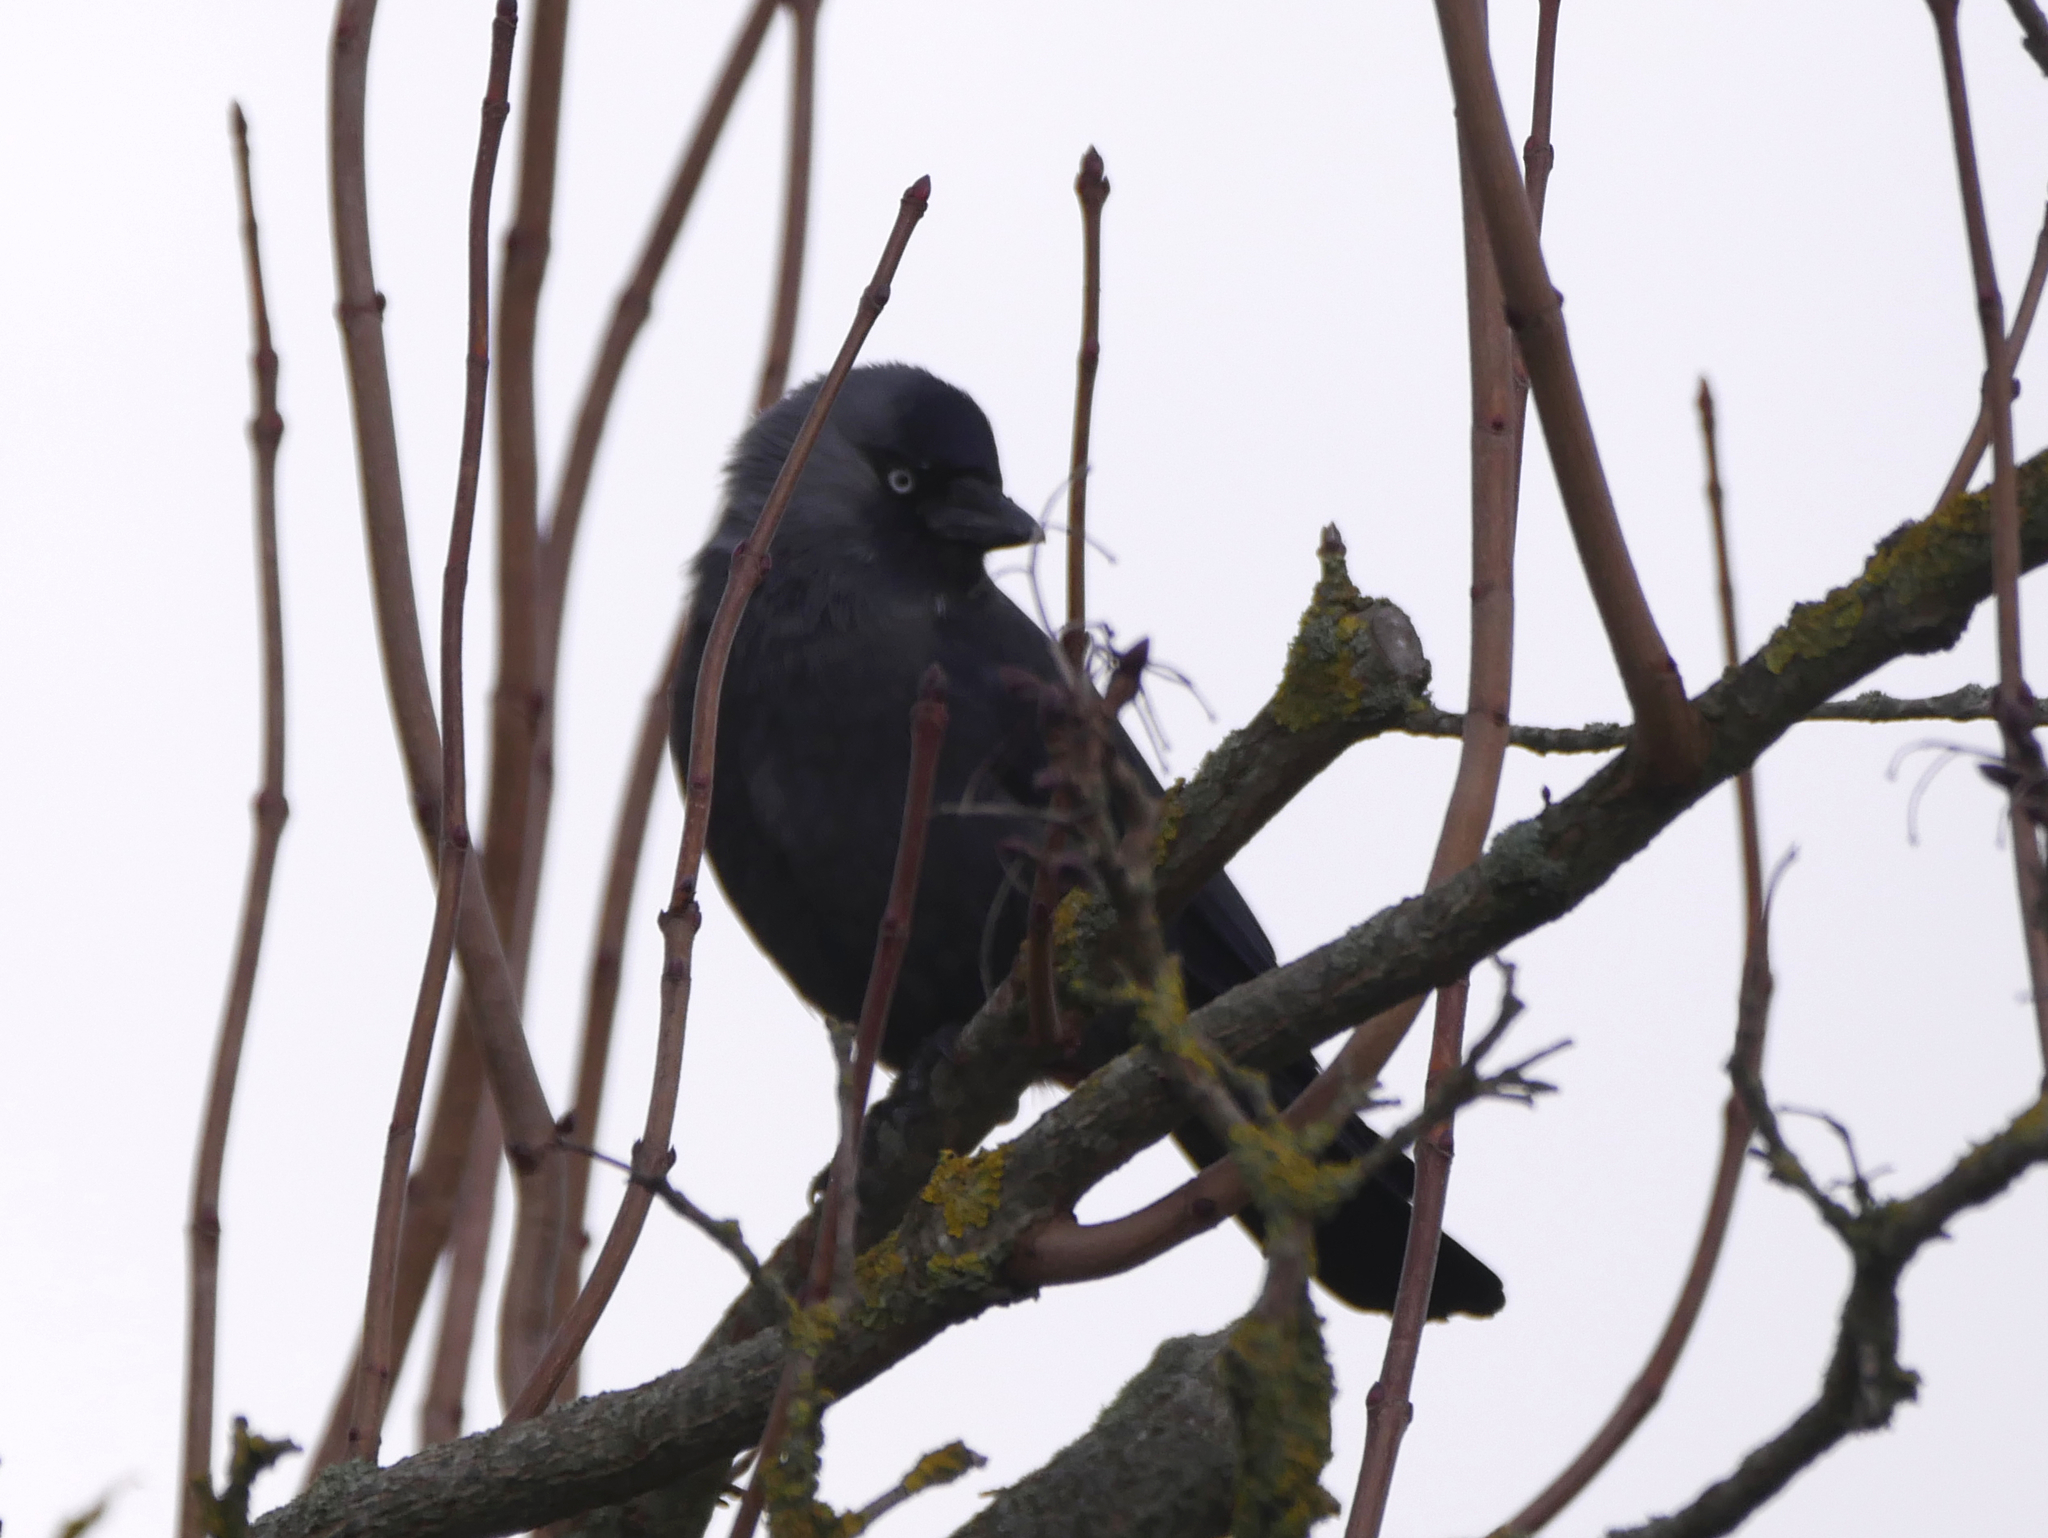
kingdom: Animalia
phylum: Chordata
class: Aves
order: Passeriformes
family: Corvidae
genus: Coloeus
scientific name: Coloeus monedula
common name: Western jackdaw
